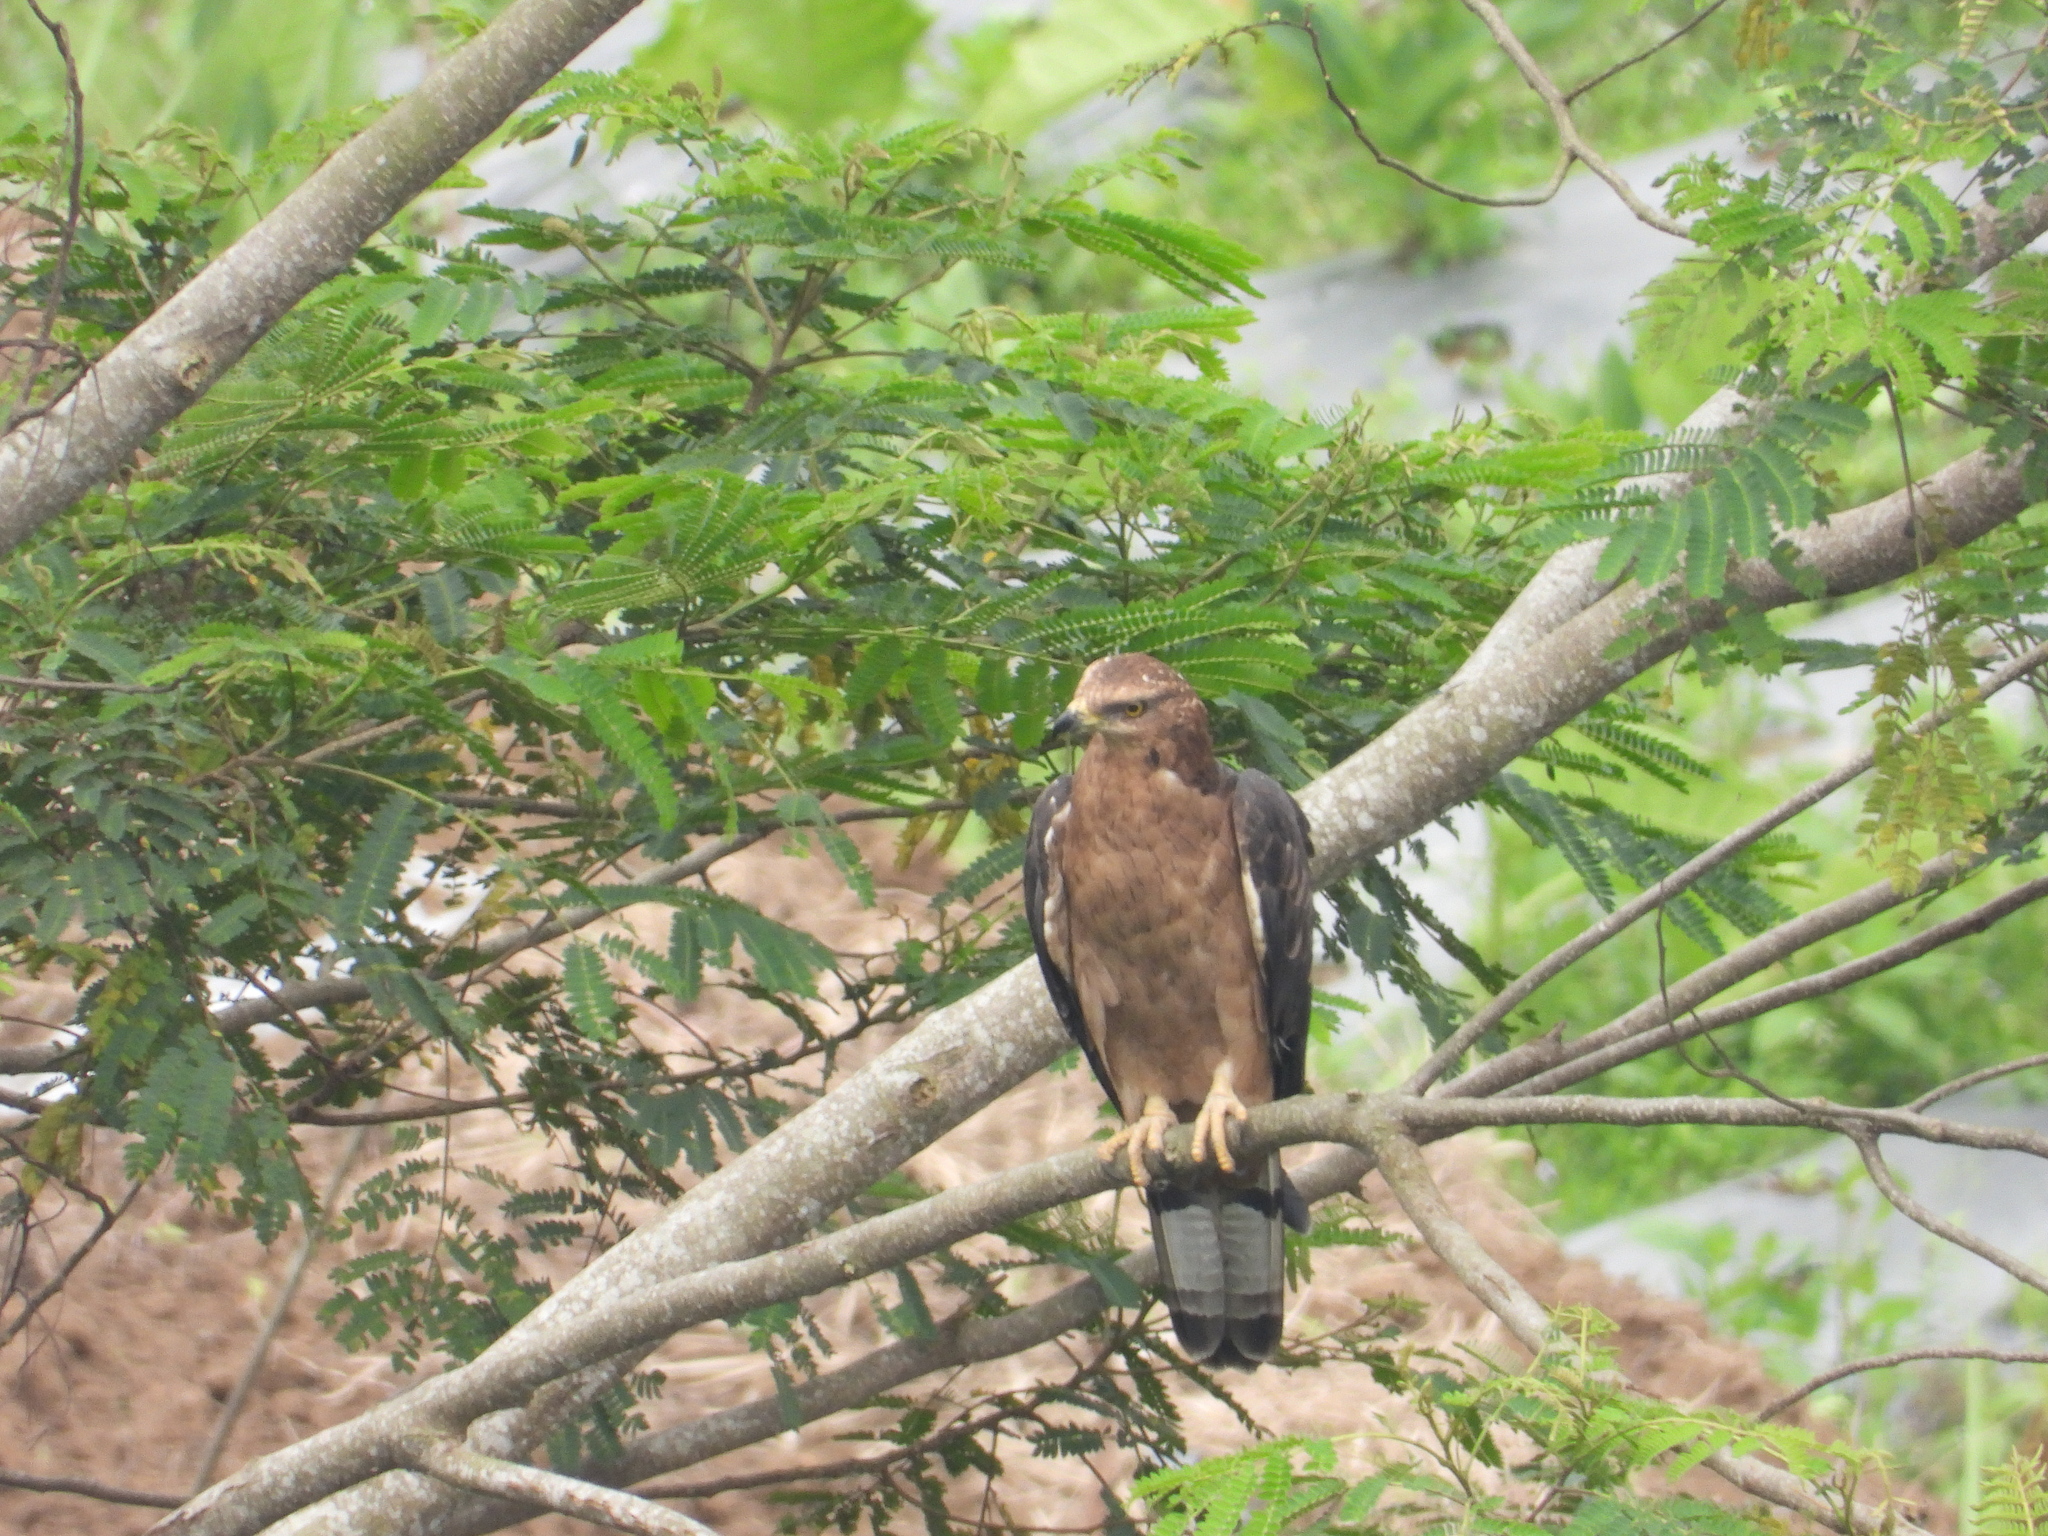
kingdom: Animalia
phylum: Chordata
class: Aves
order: Accipitriformes
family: Accipitridae
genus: Pernis
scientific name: Pernis ptilorhynchus
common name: Crested honey buzzard
